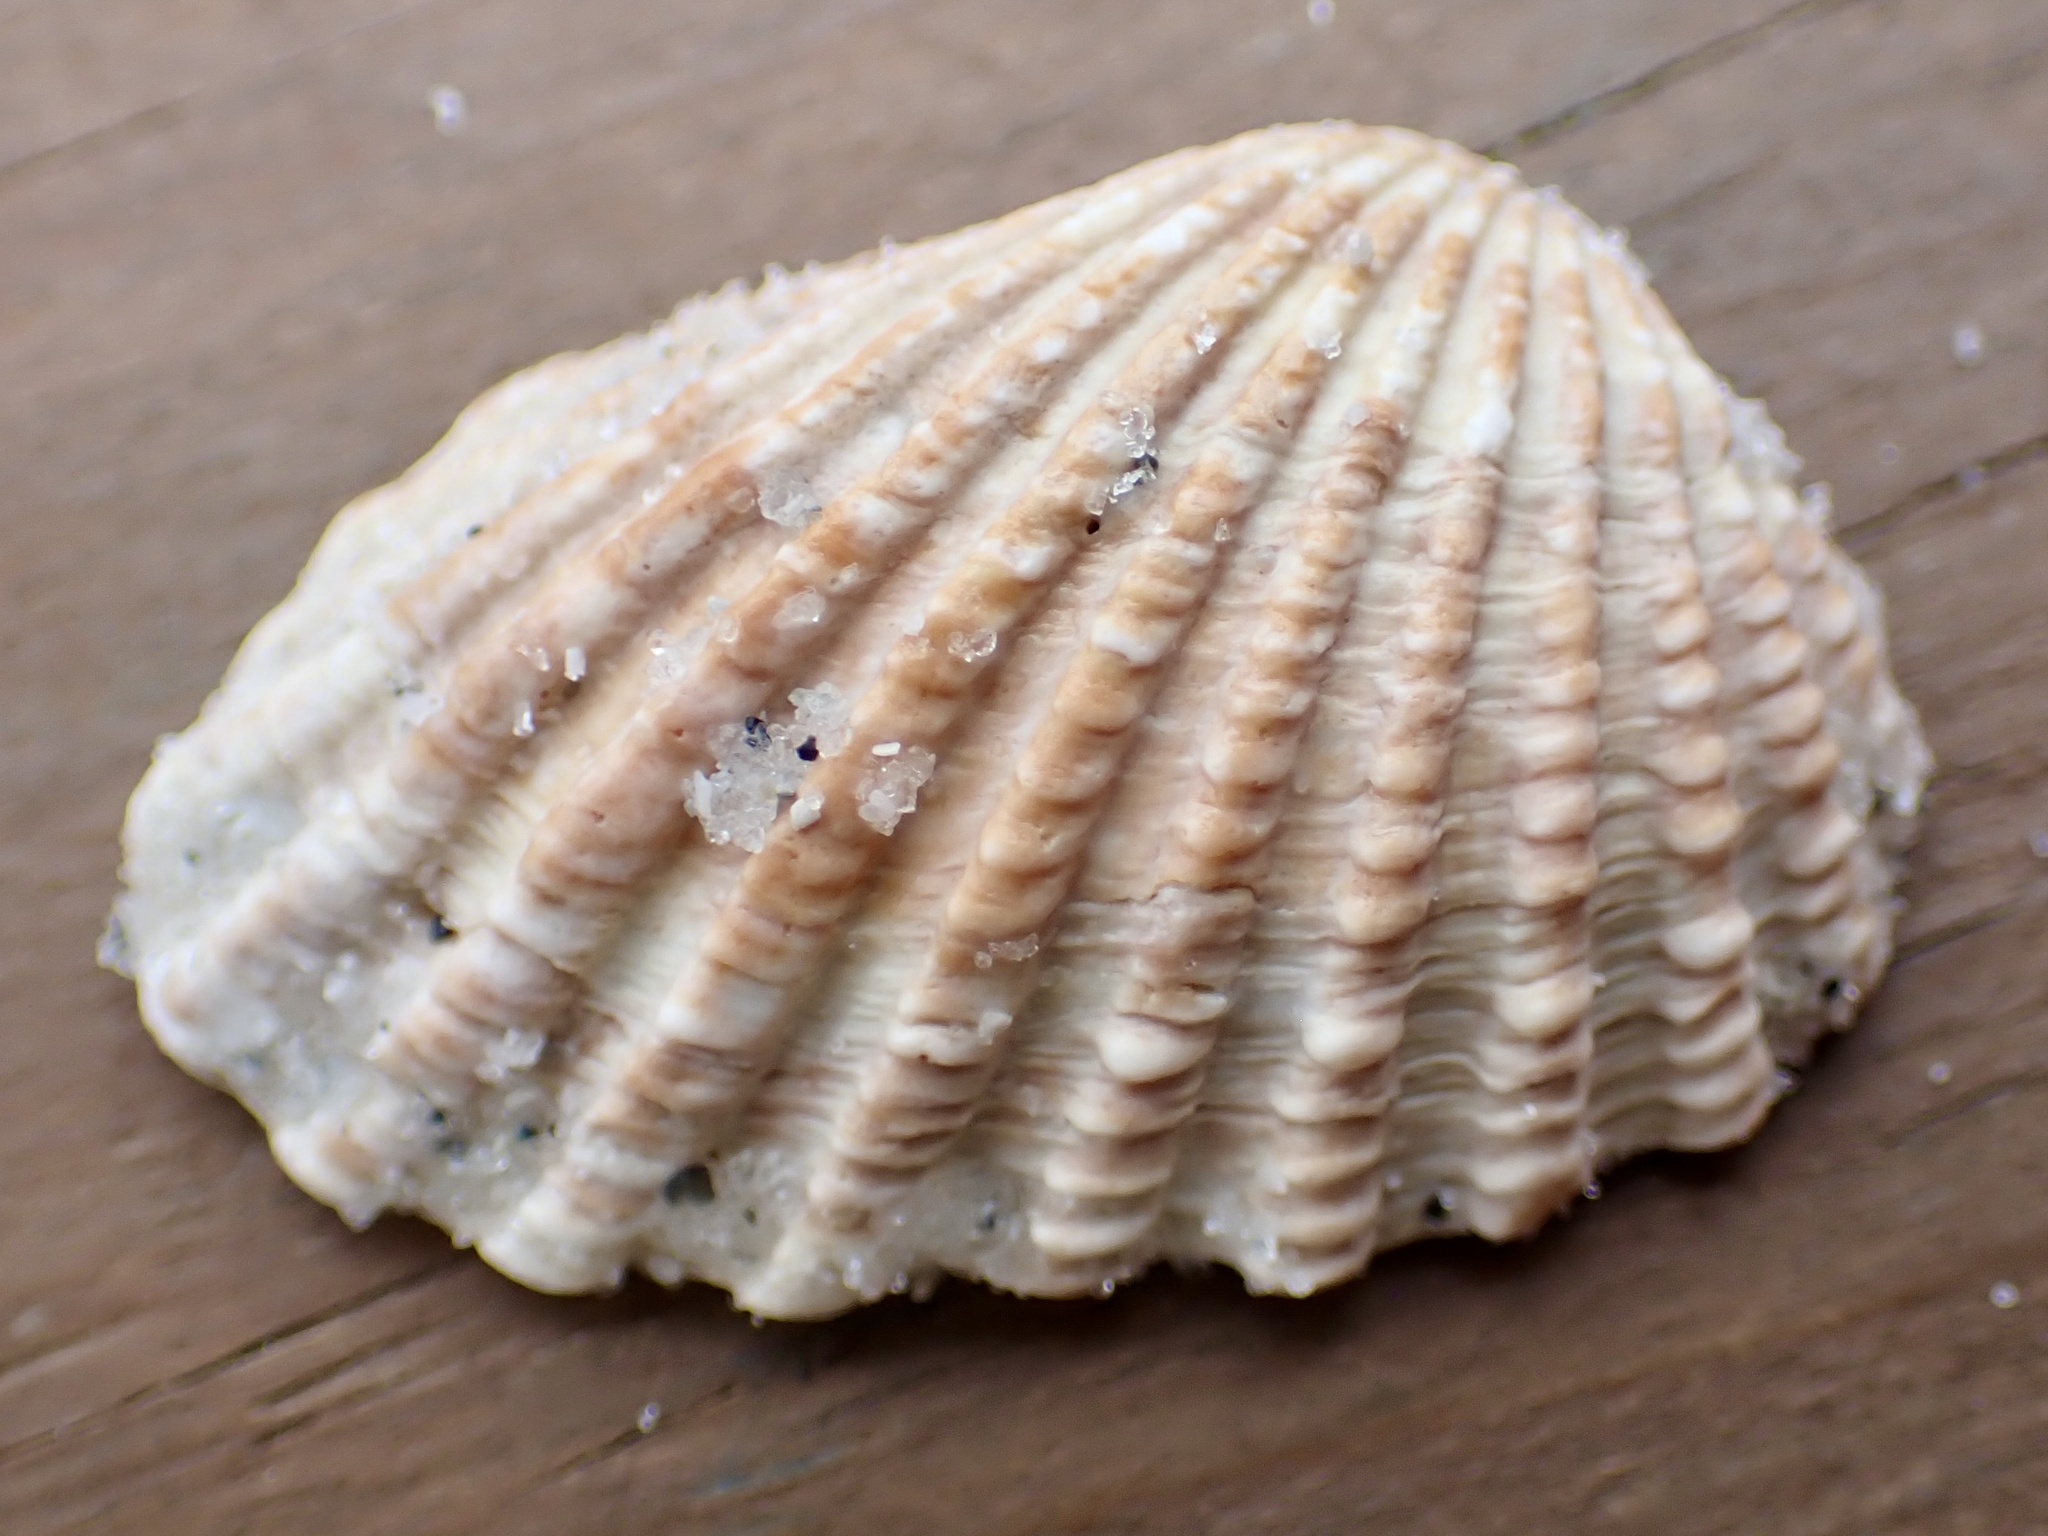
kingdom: Animalia
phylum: Mollusca
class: Bivalvia
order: Carditida
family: Carditidae
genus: Cardites
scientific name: Cardites floridanus
